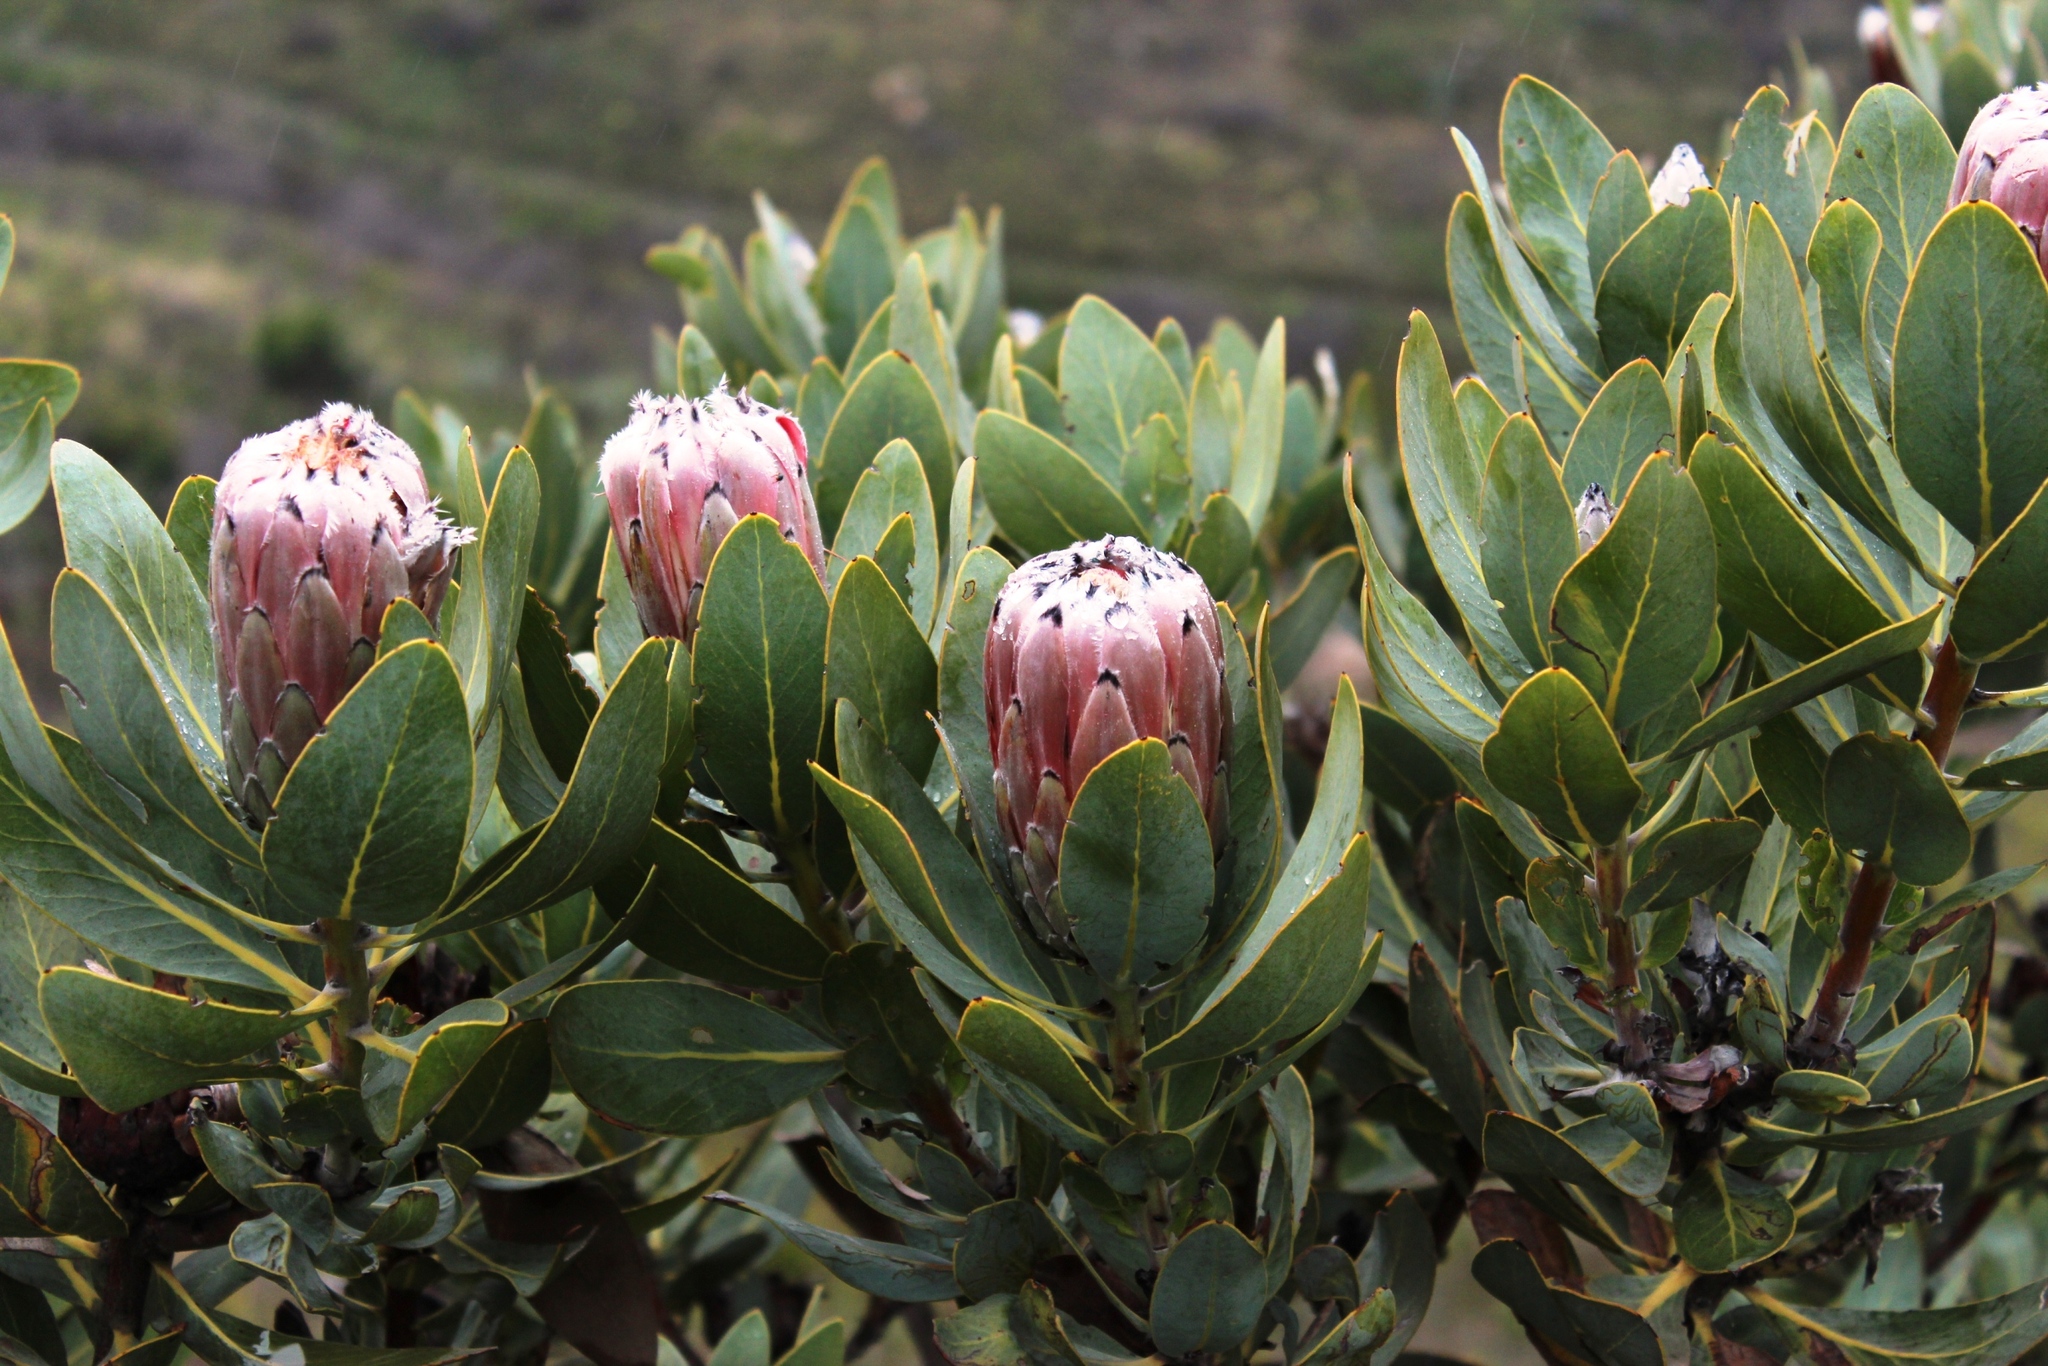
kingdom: Plantae
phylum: Tracheophyta
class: Magnoliopsida
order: Proteales
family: Proteaceae
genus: Protea
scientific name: Protea laurifolia
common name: Grey-leaf sugarbsh
